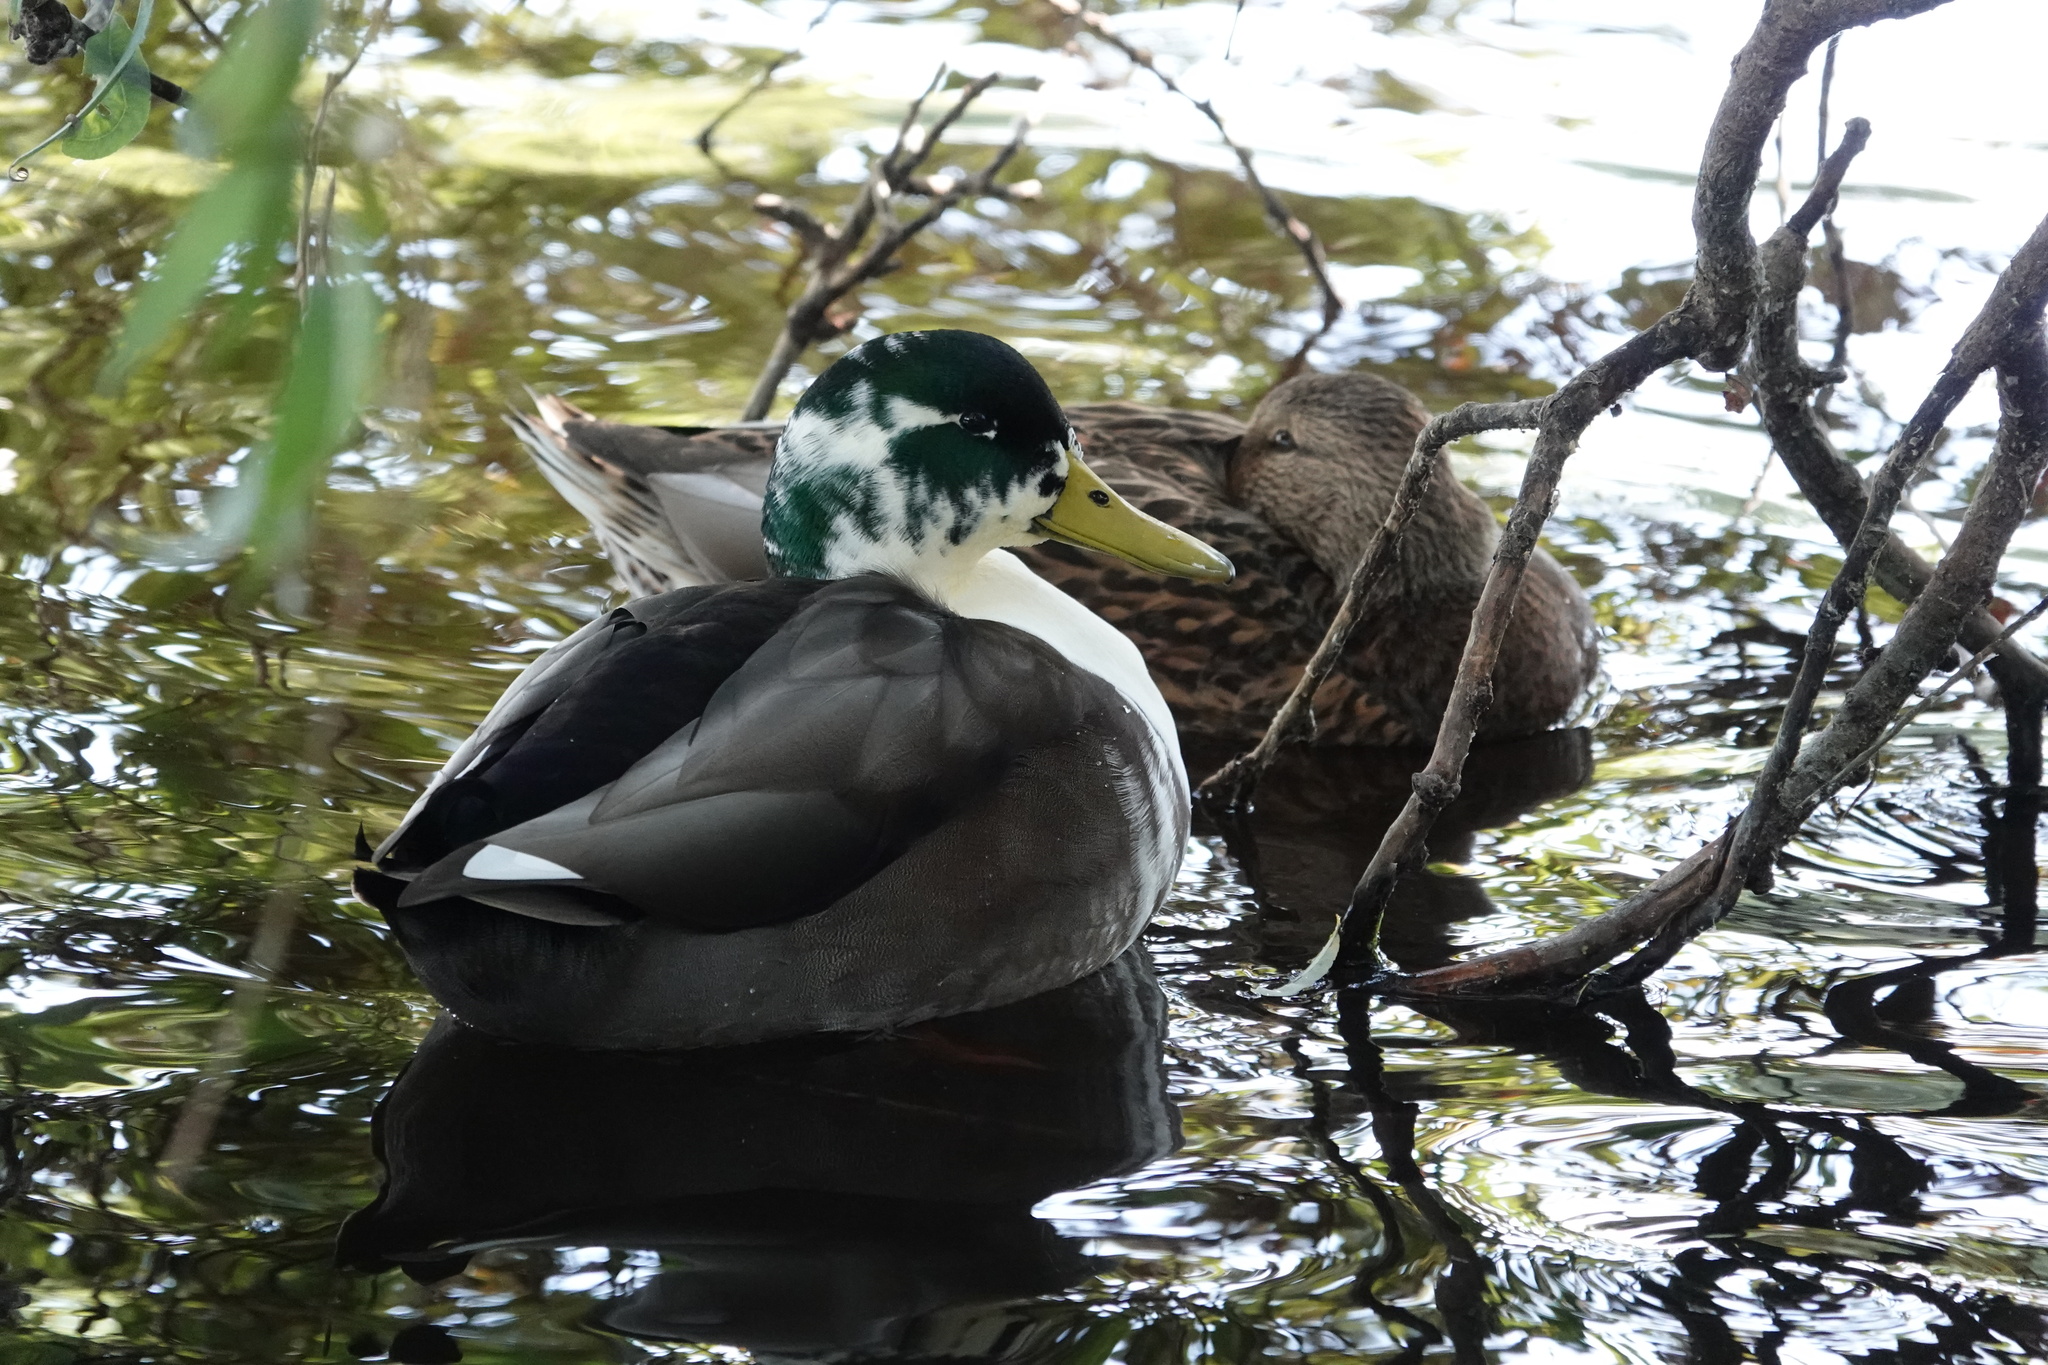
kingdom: Animalia
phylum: Chordata
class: Aves
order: Anseriformes
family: Anatidae
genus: Anas
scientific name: Anas platyrhynchos
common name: Mallard
